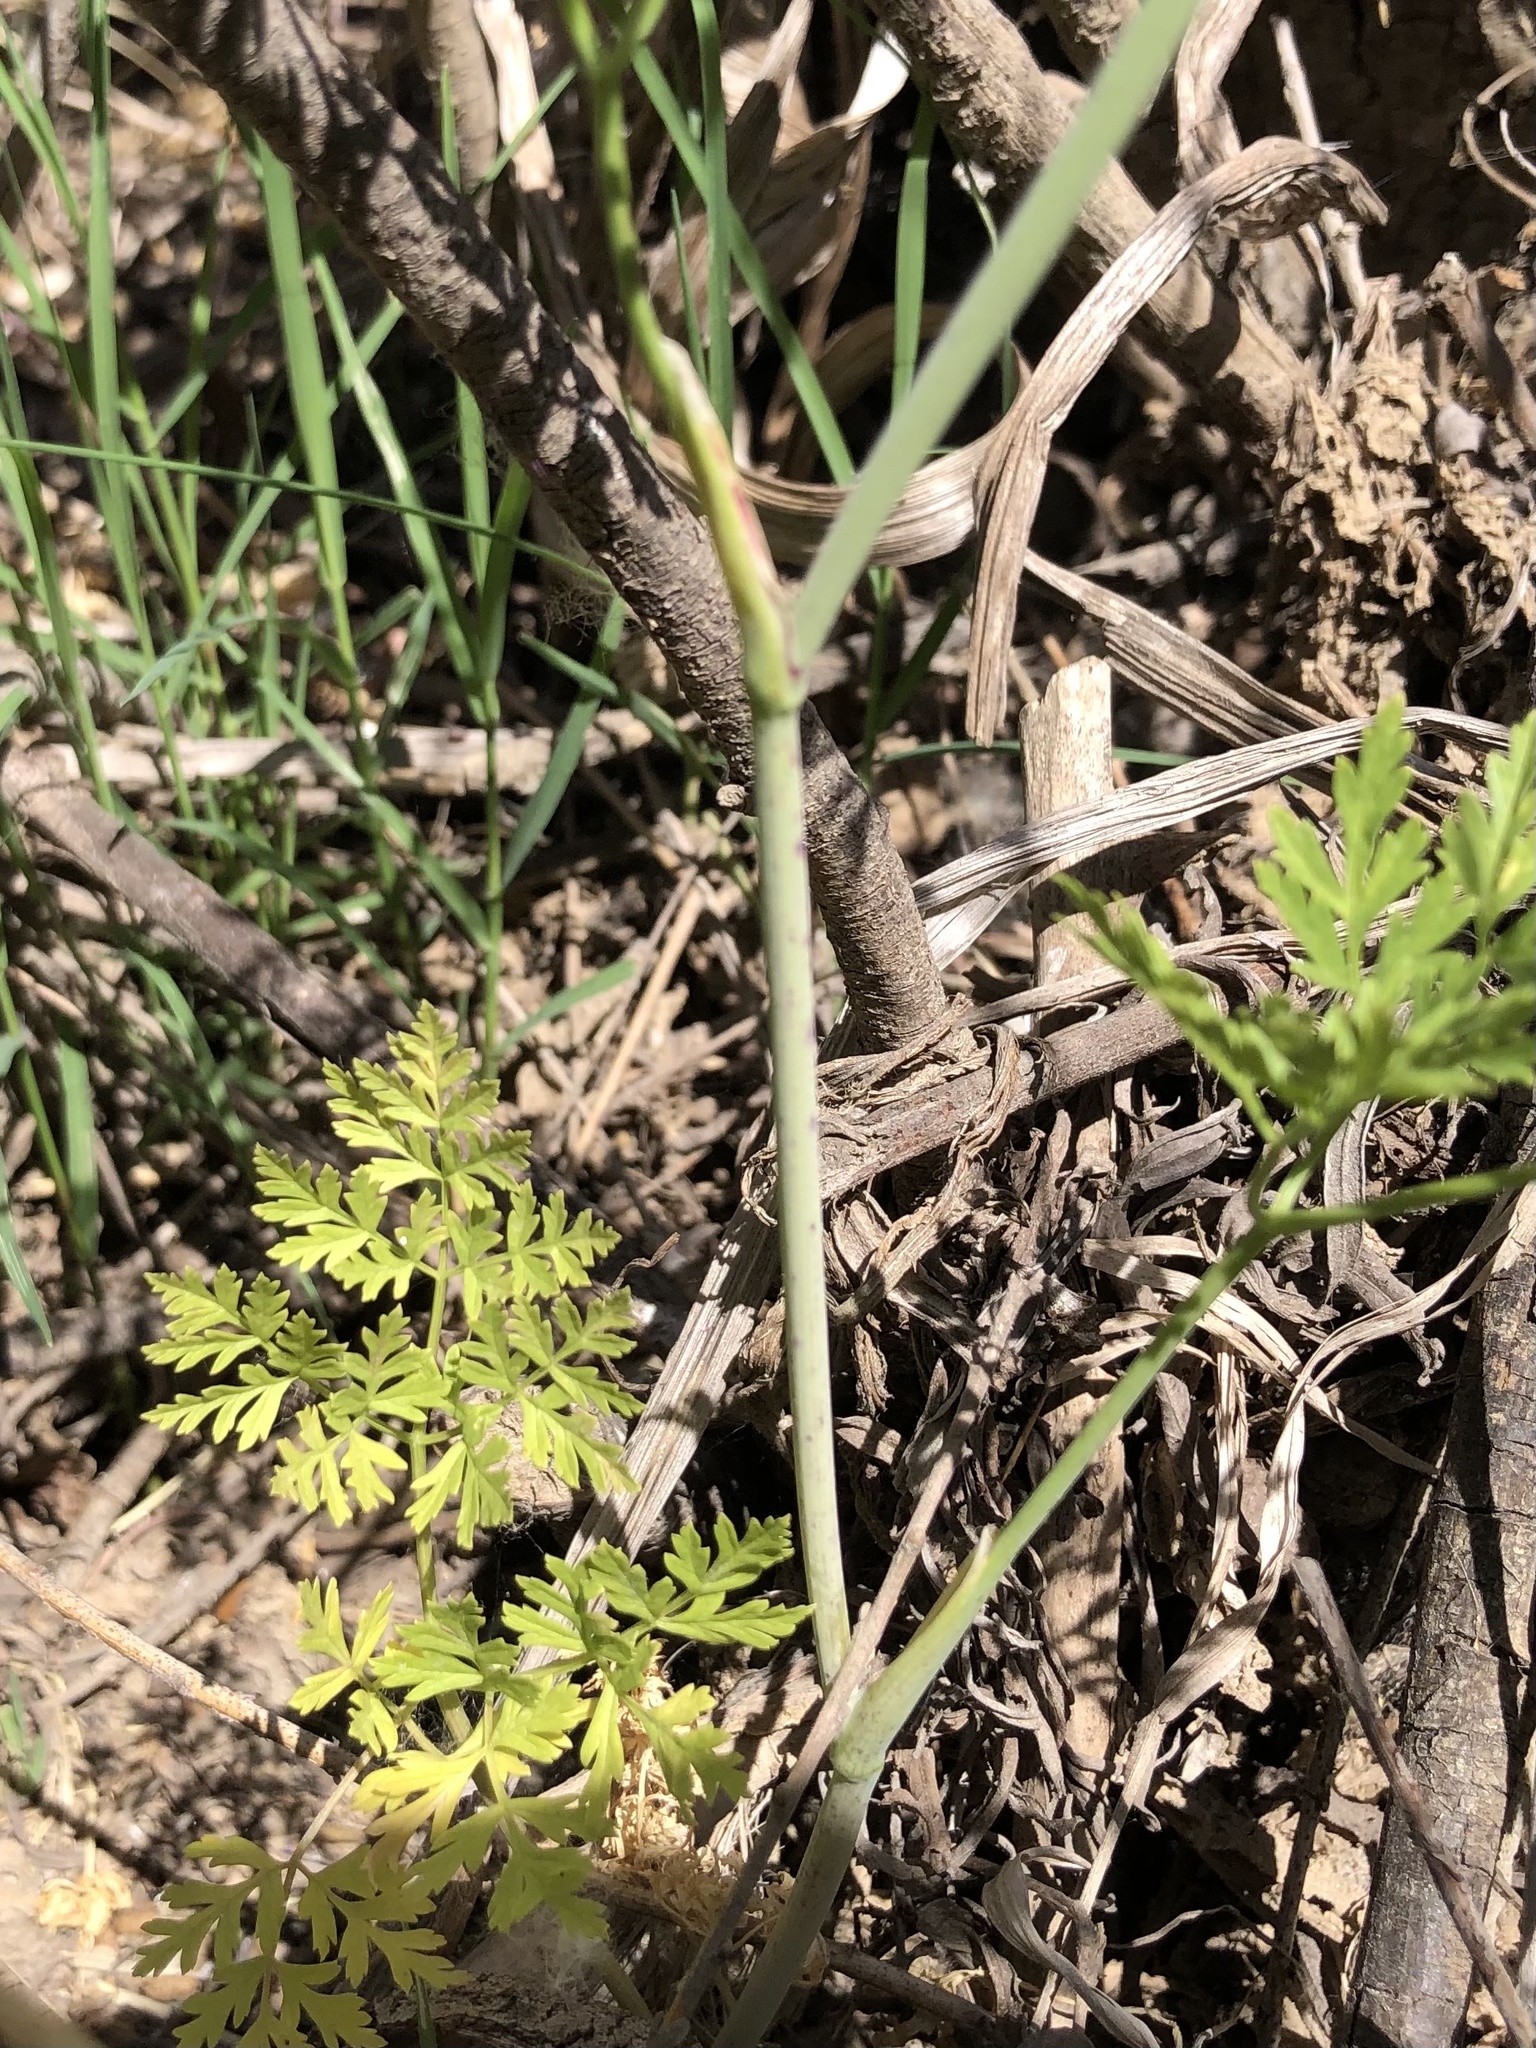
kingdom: Plantae
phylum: Tracheophyta
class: Magnoliopsida
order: Apiales
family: Apiaceae
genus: Conium
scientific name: Conium maculatum
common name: Hemlock
